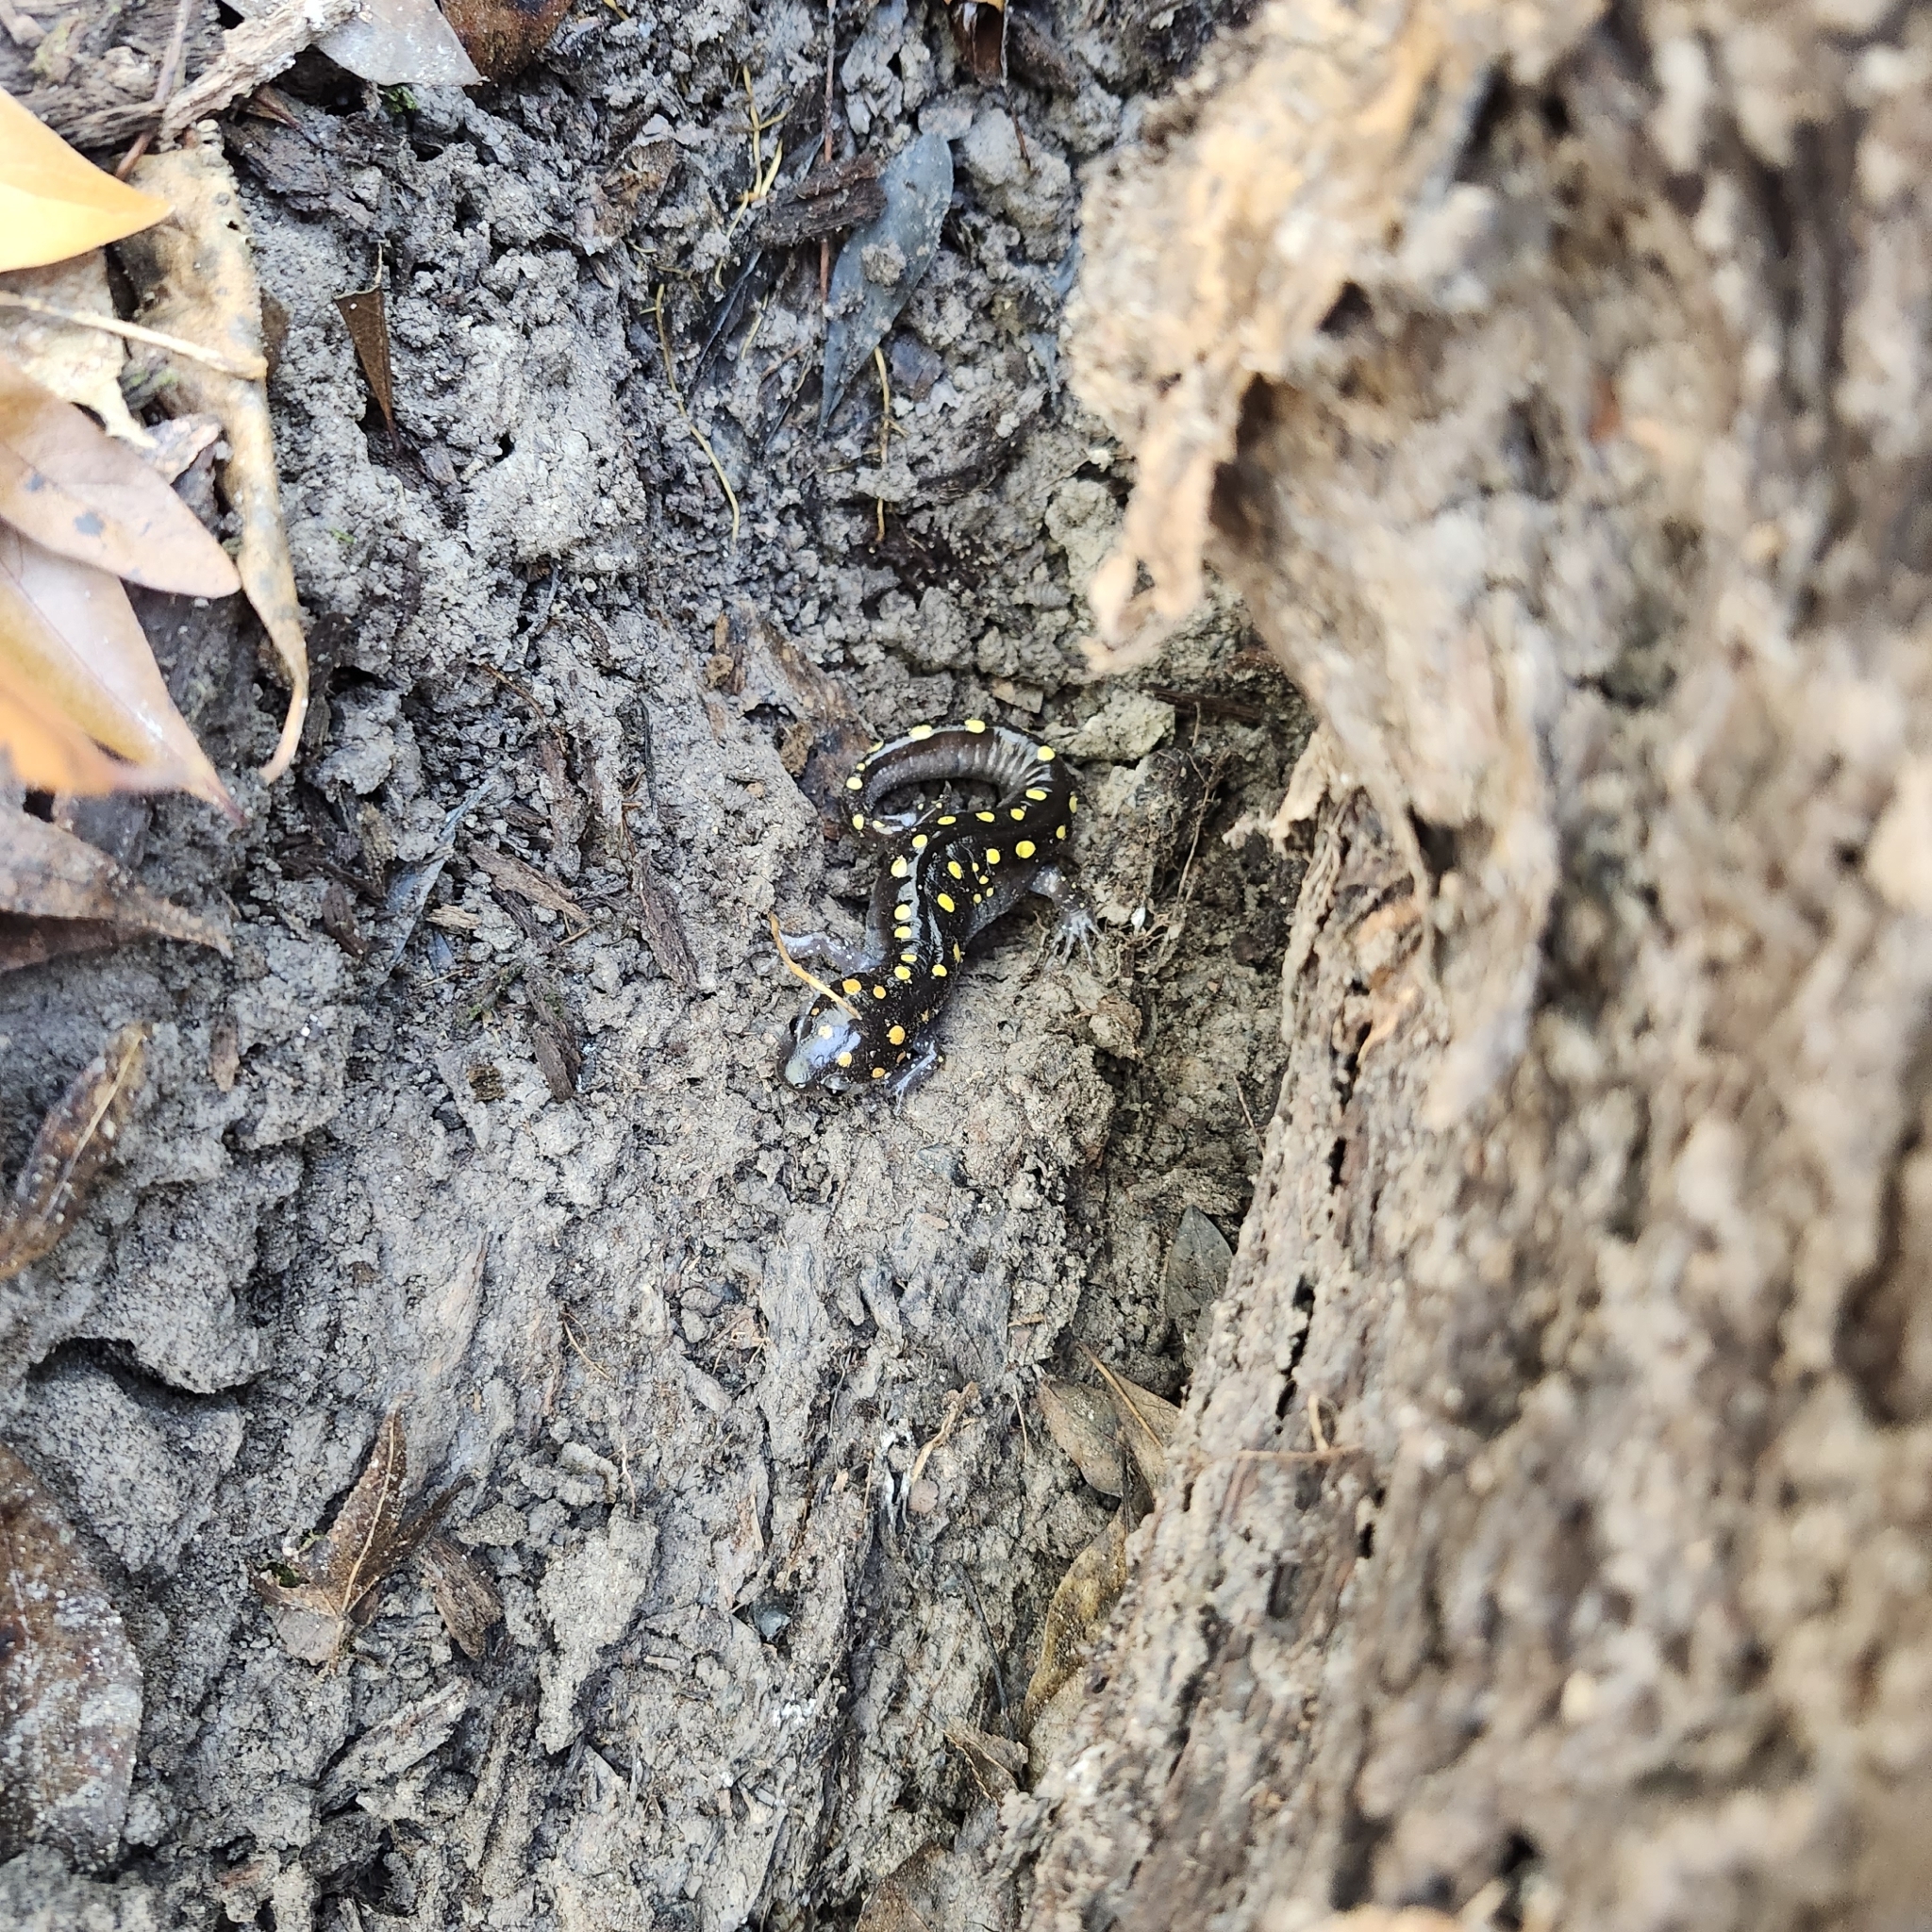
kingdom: Animalia
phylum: Chordata
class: Amphibia
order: Caudata
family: Ambystomatidae
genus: Ambystoma
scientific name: Ambystoma maculatum
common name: Spotted salamander
